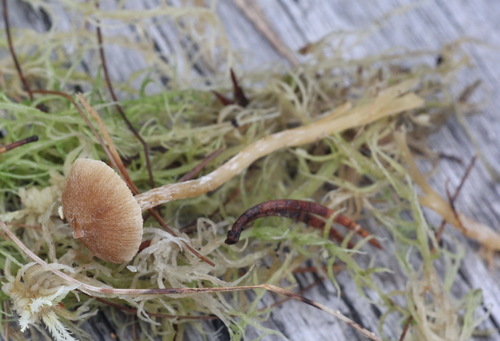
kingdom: Fungi
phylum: Basidiomycota
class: Agaricomycetes
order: Agaricales
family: Hymenogastraceae
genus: Galerina
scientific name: Galerina paludosa
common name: Bog bell
